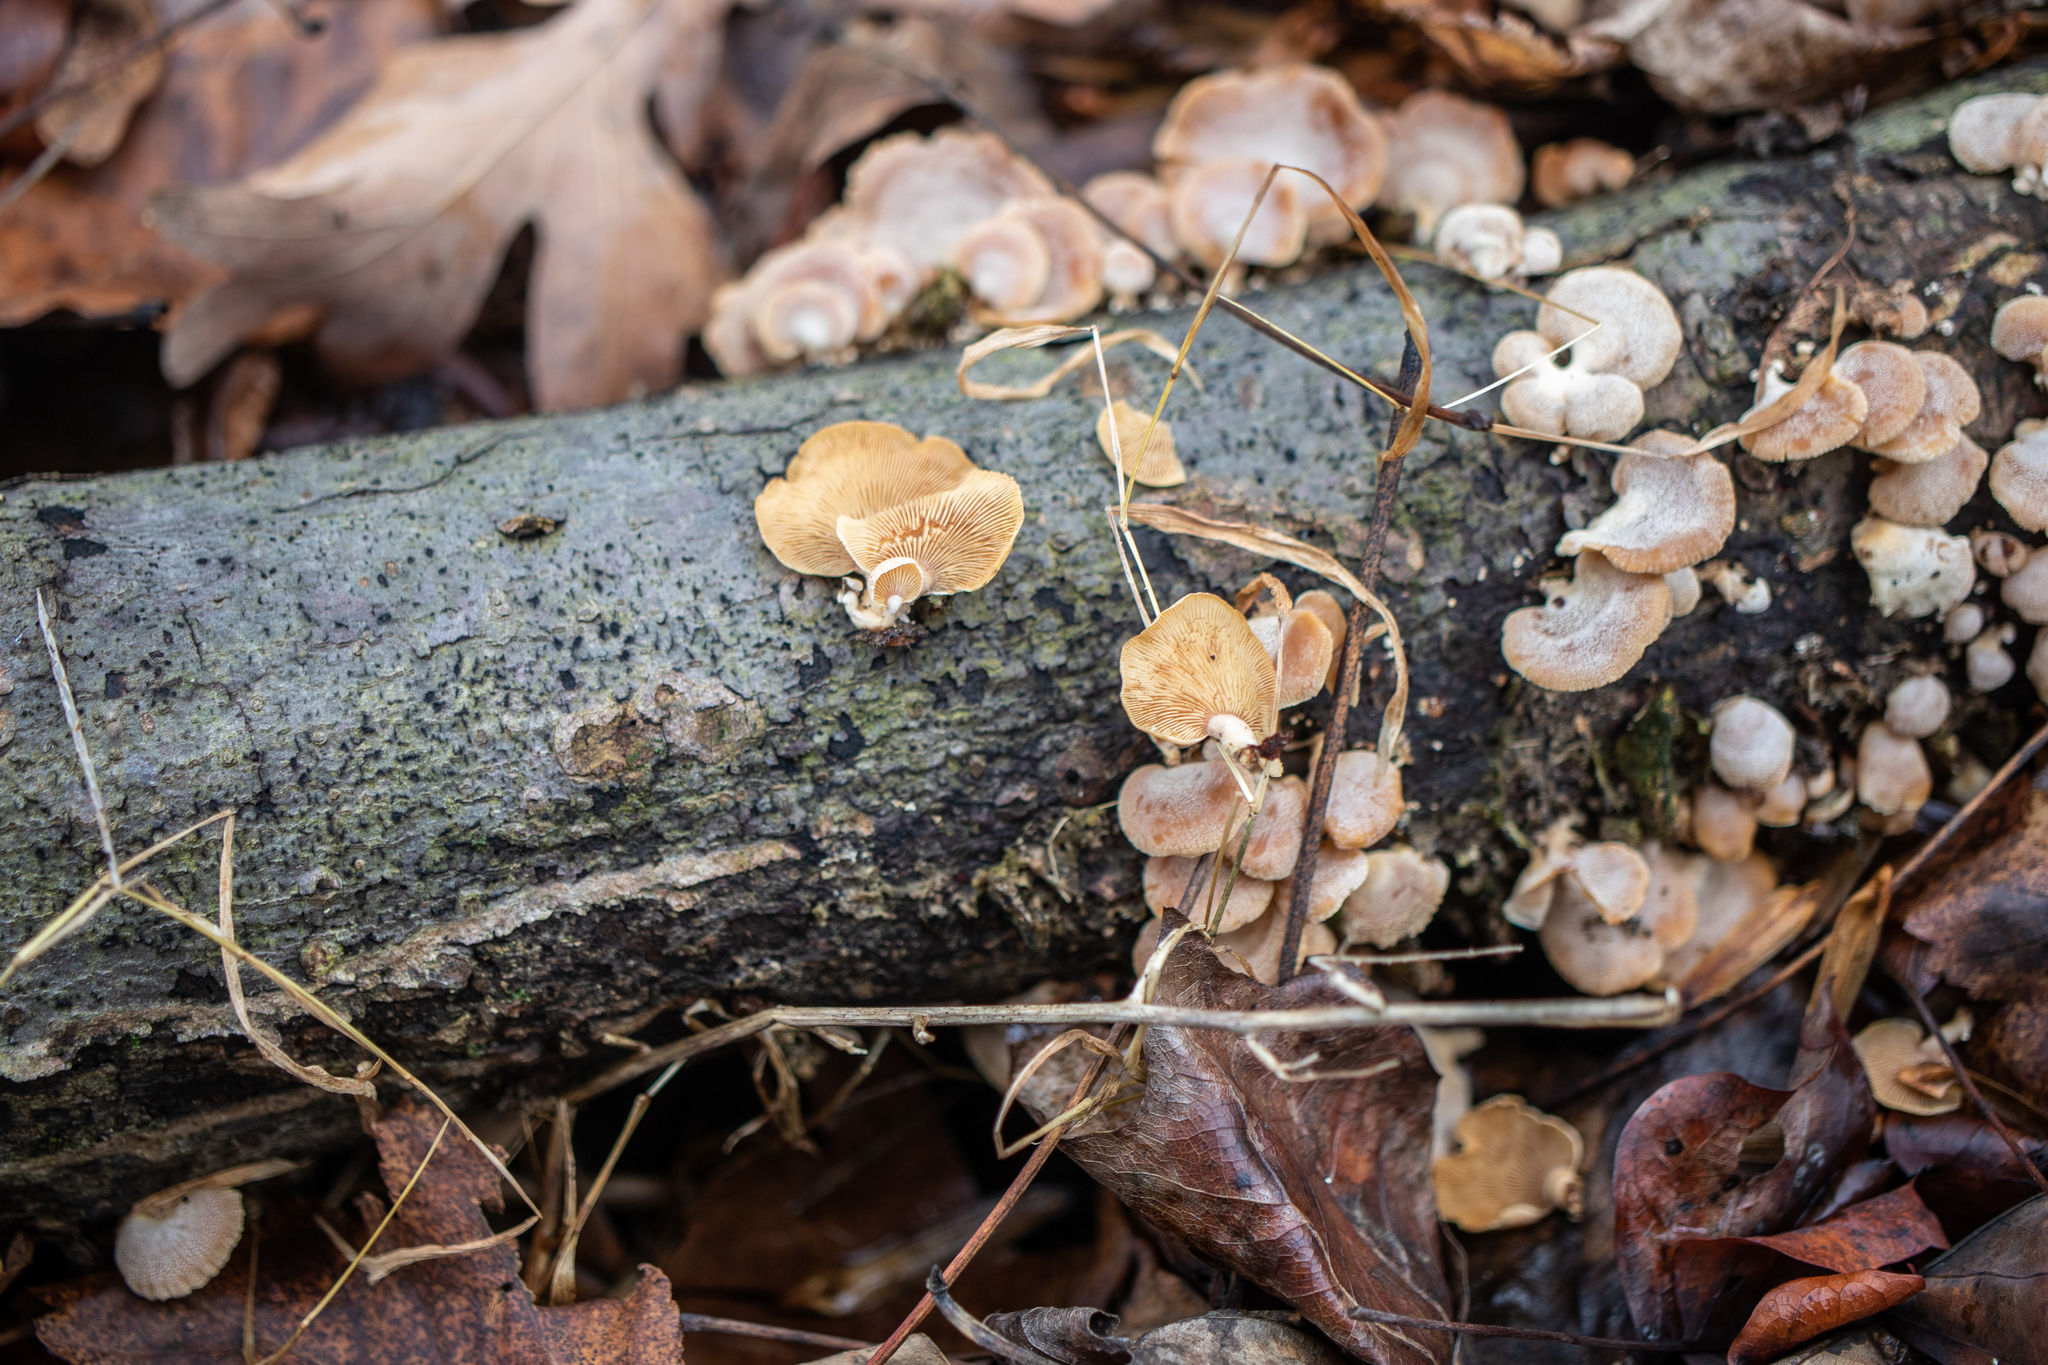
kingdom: Fungi
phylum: Basidiomycota
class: Agaricomycetes
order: Agaricales
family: Mycenaceae
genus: Panellus
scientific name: Panellus stipticus
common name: Bitter oysterling
